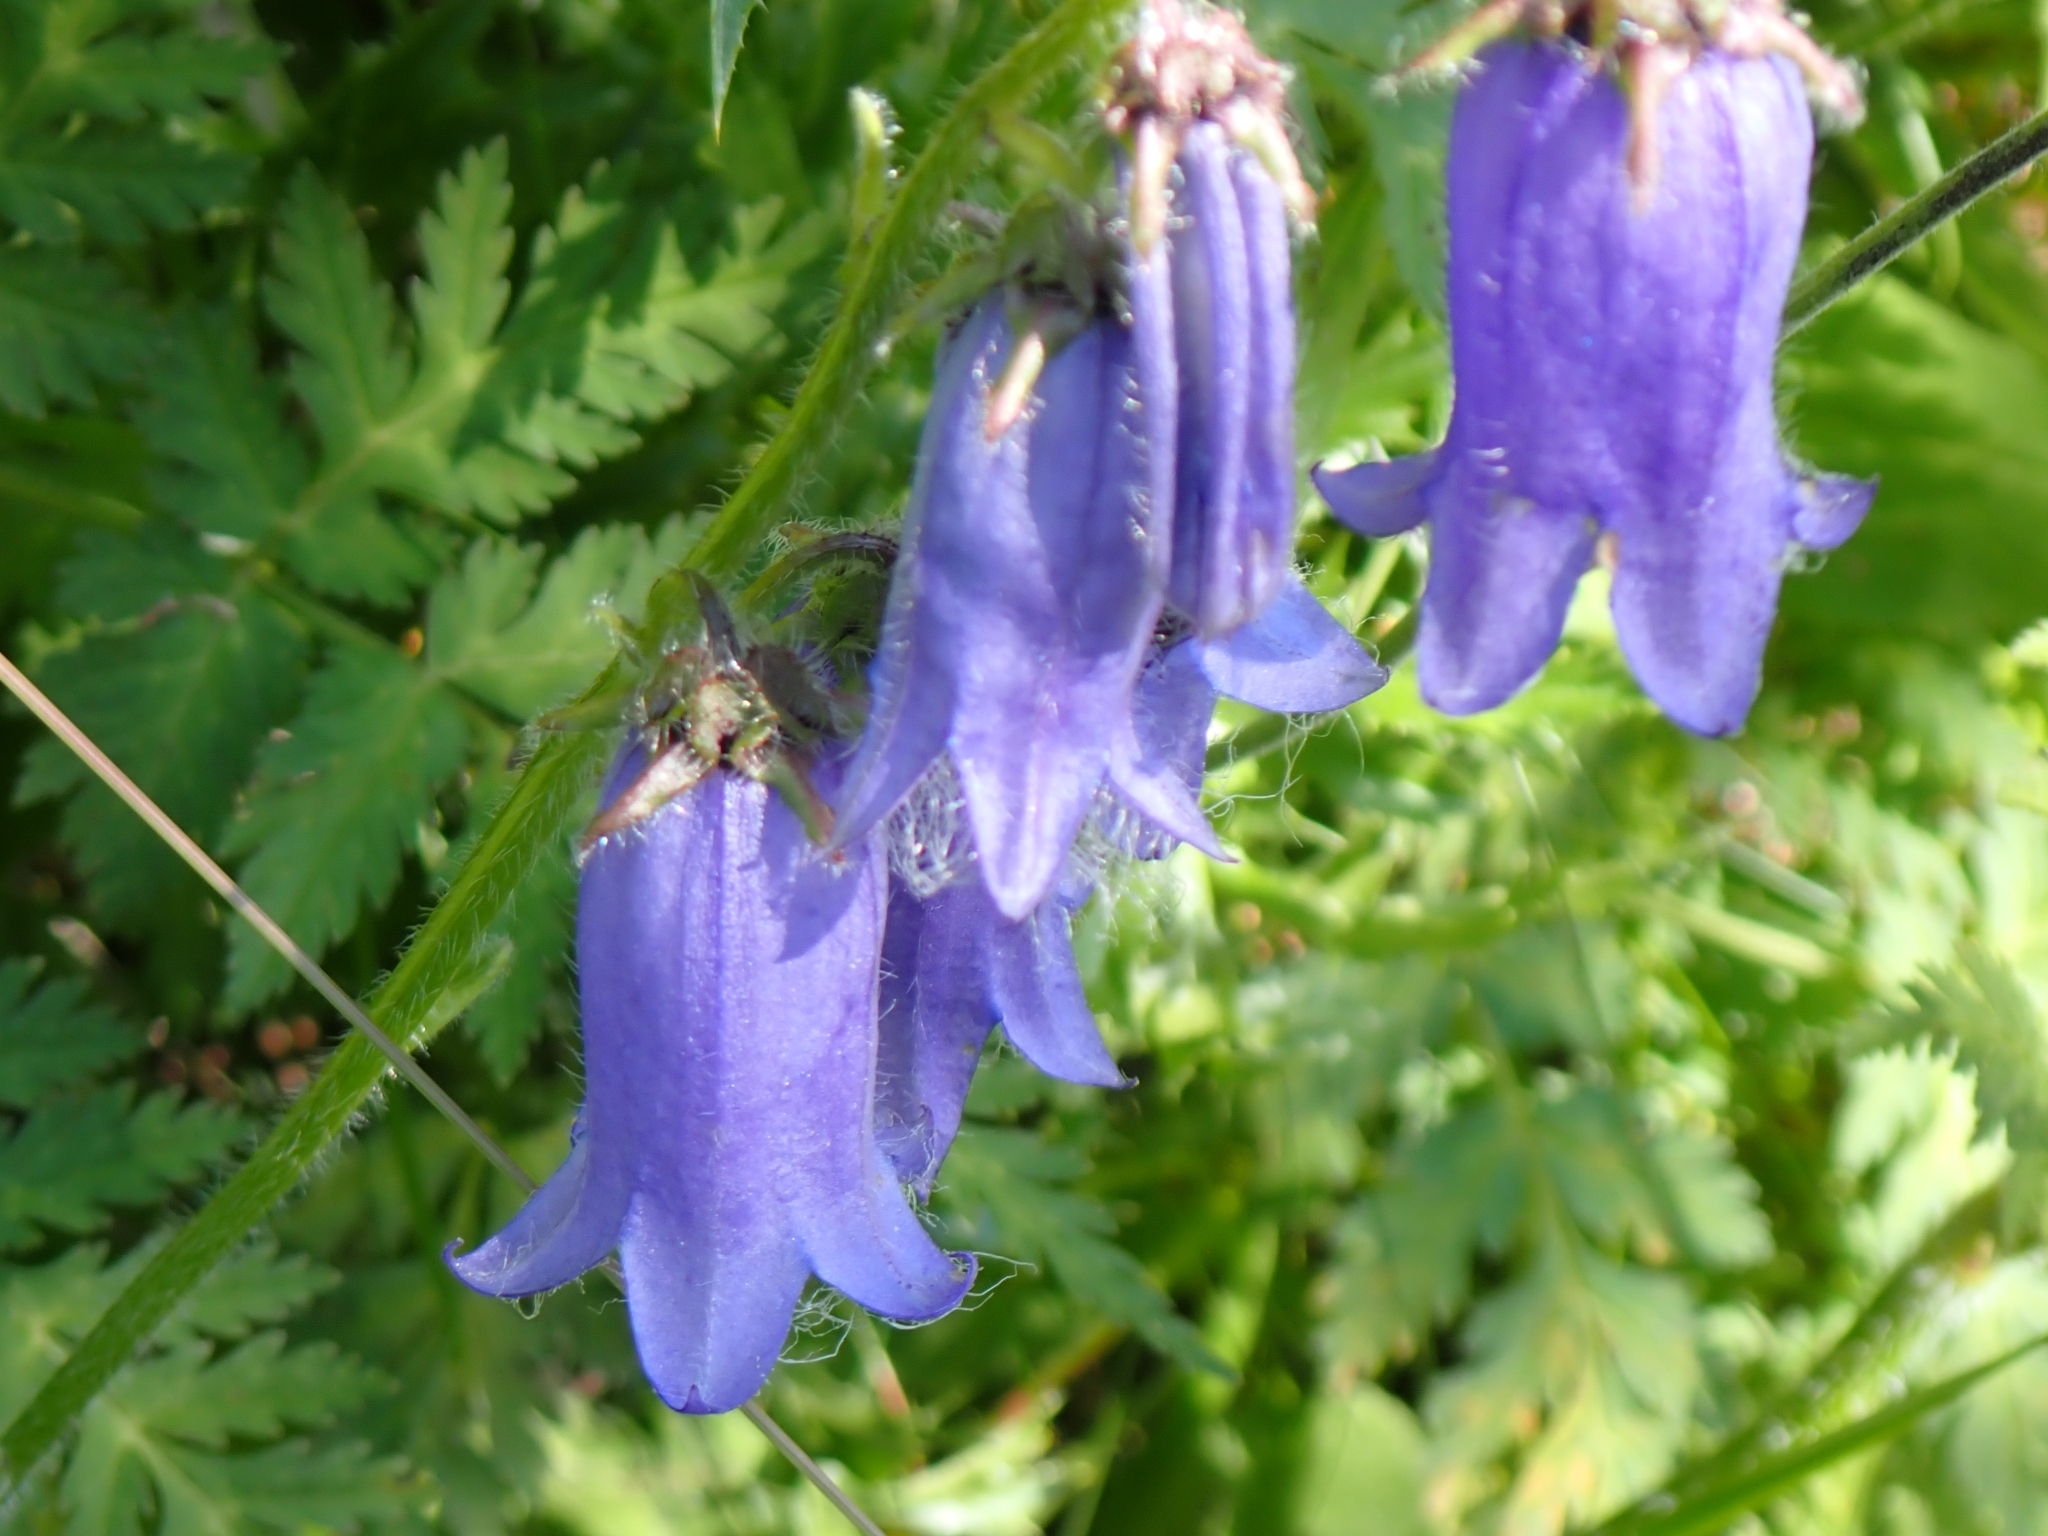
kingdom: Plantae
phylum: Tracheophyta
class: Magnoliopsida
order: Asterales
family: Campanulaceae
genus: Campanula
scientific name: Campanula barbata
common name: Bearded bellflower
